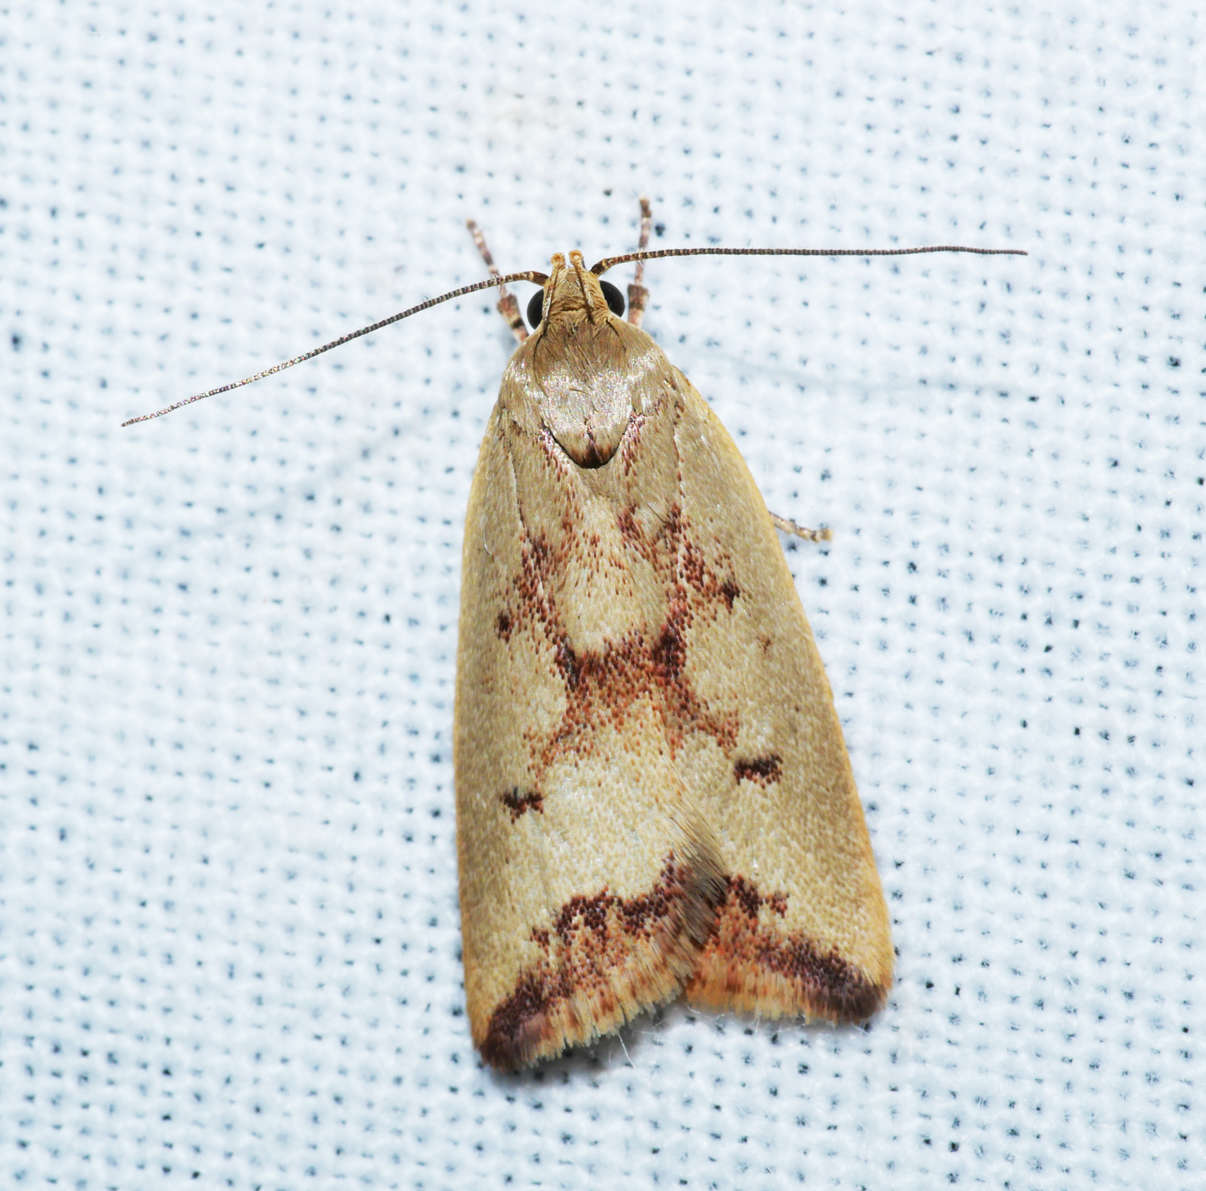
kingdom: Animalia
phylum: Arthropoda
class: Insecta
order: Lepidoptera
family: Oecophoridae
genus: Ageletha
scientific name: Ageletha elaeodes
